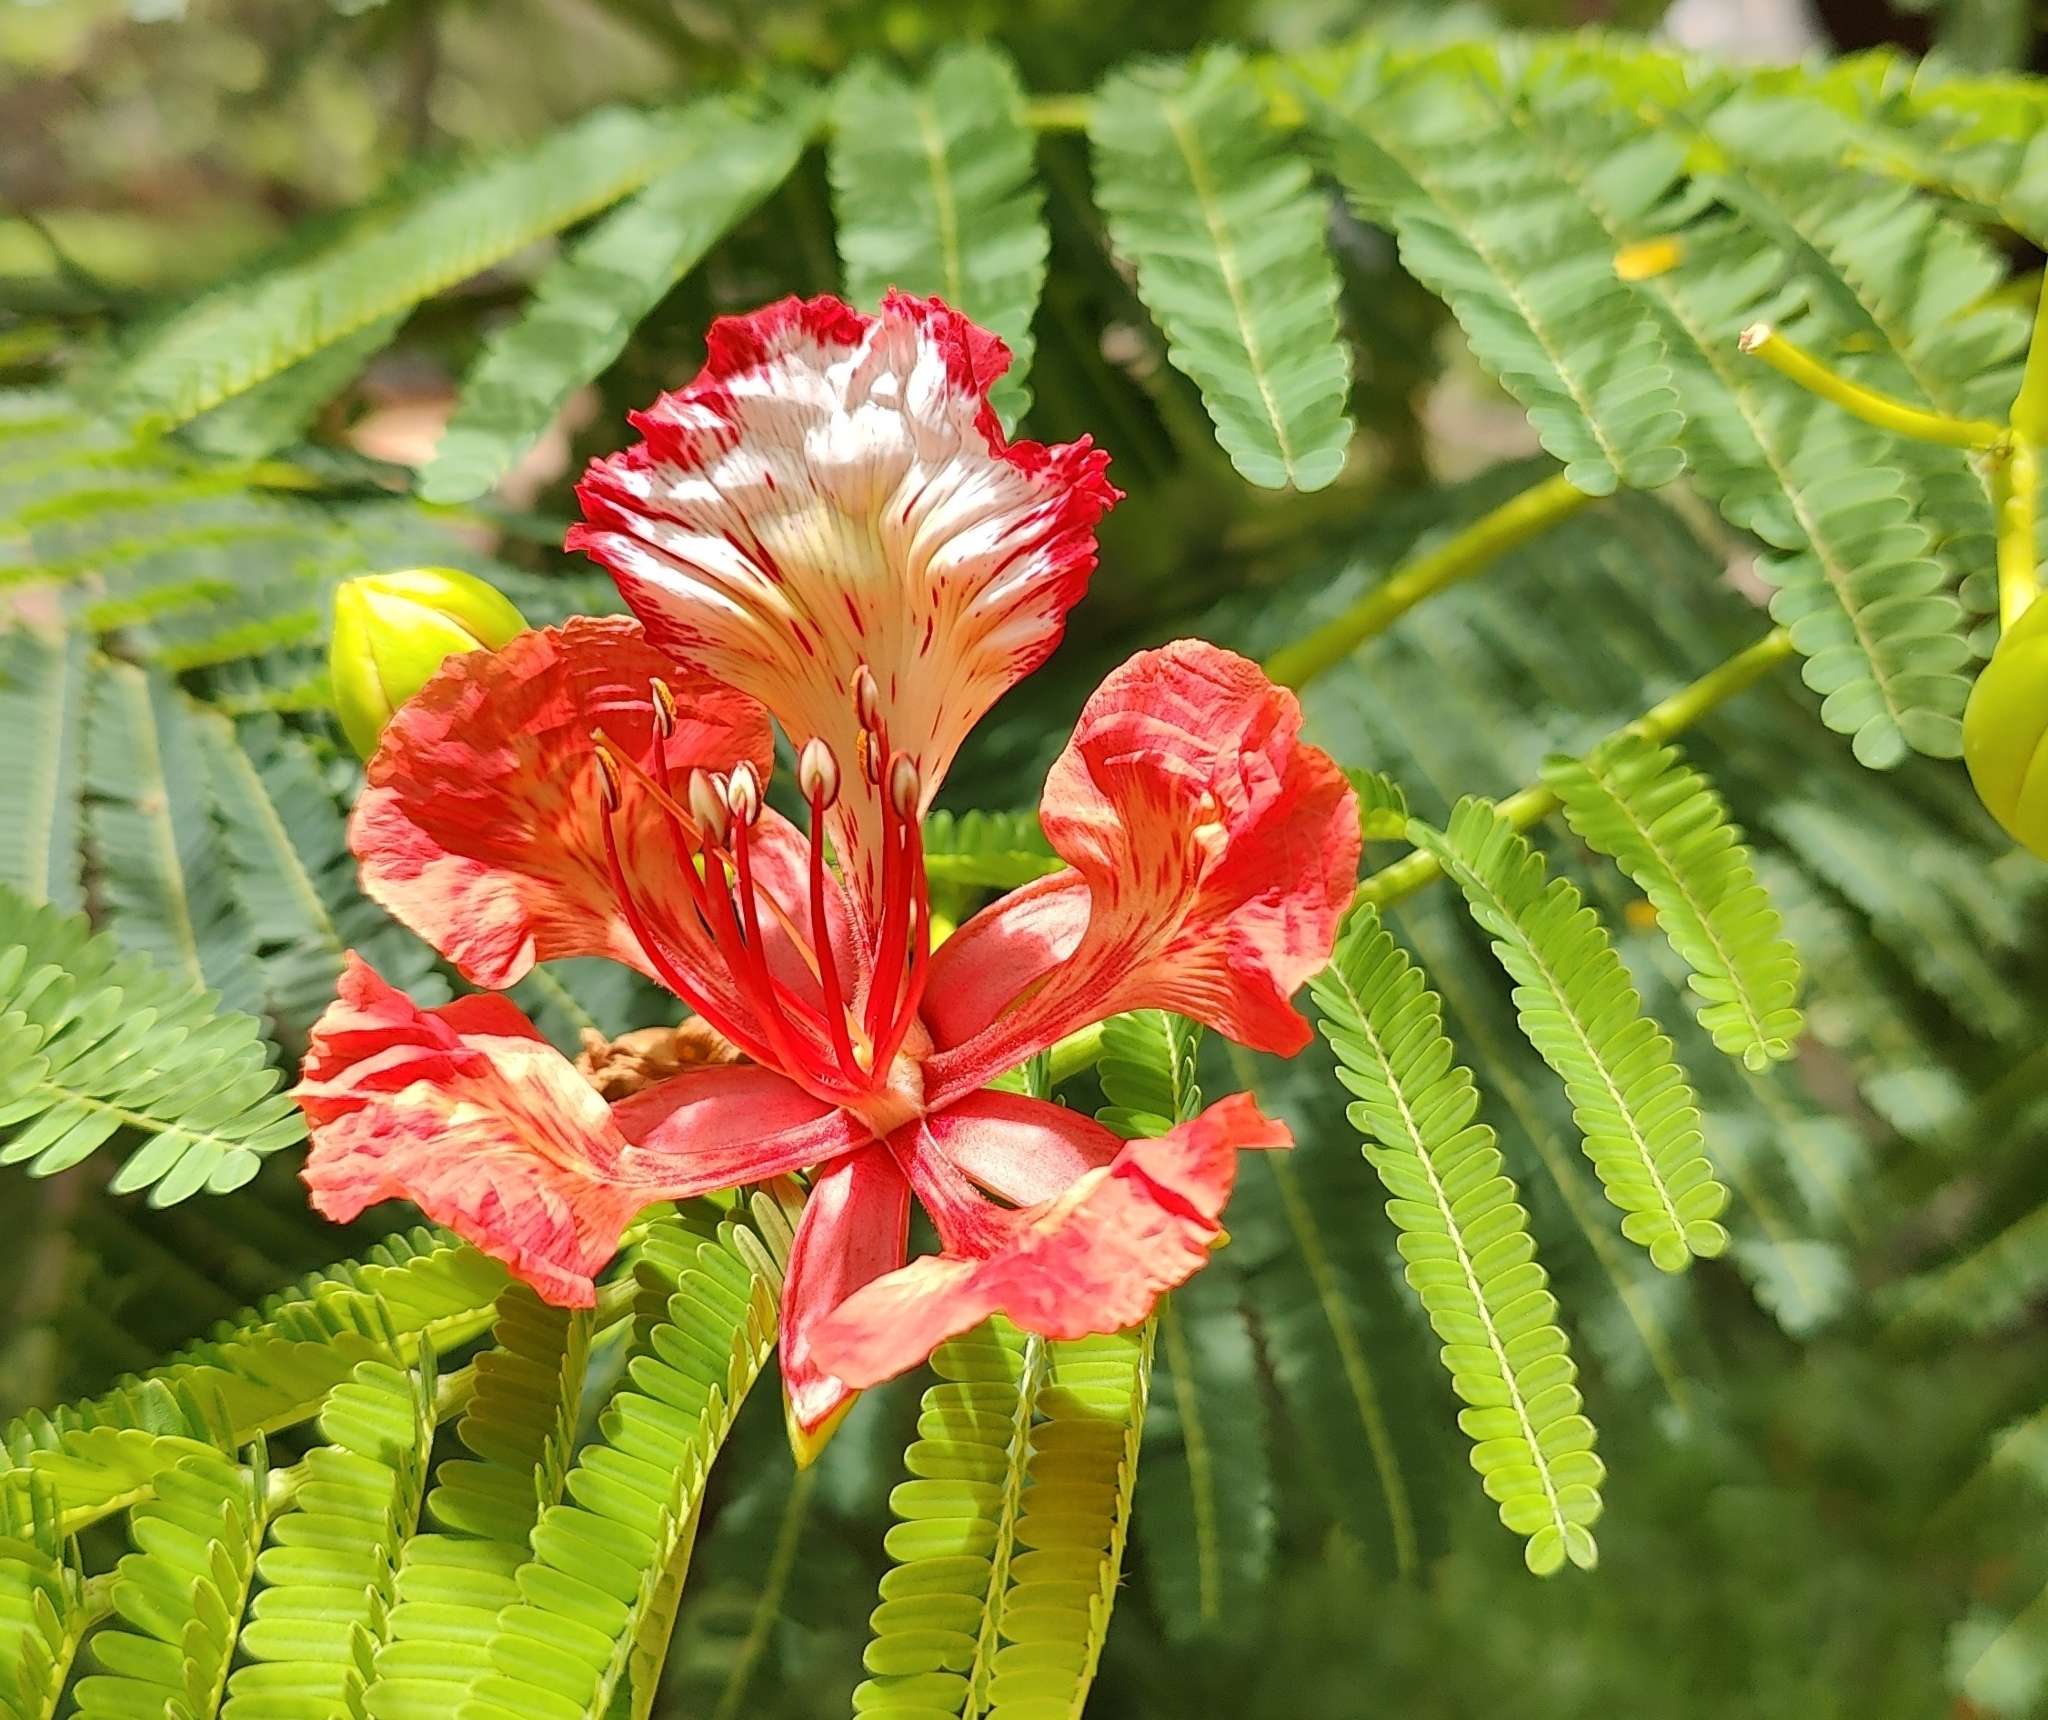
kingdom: Plantae
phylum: Tracheophyta
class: Magnoliopsida
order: Fabales
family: Fabaceae
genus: Delonix
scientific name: Delonix regia
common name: Royal poinciana
